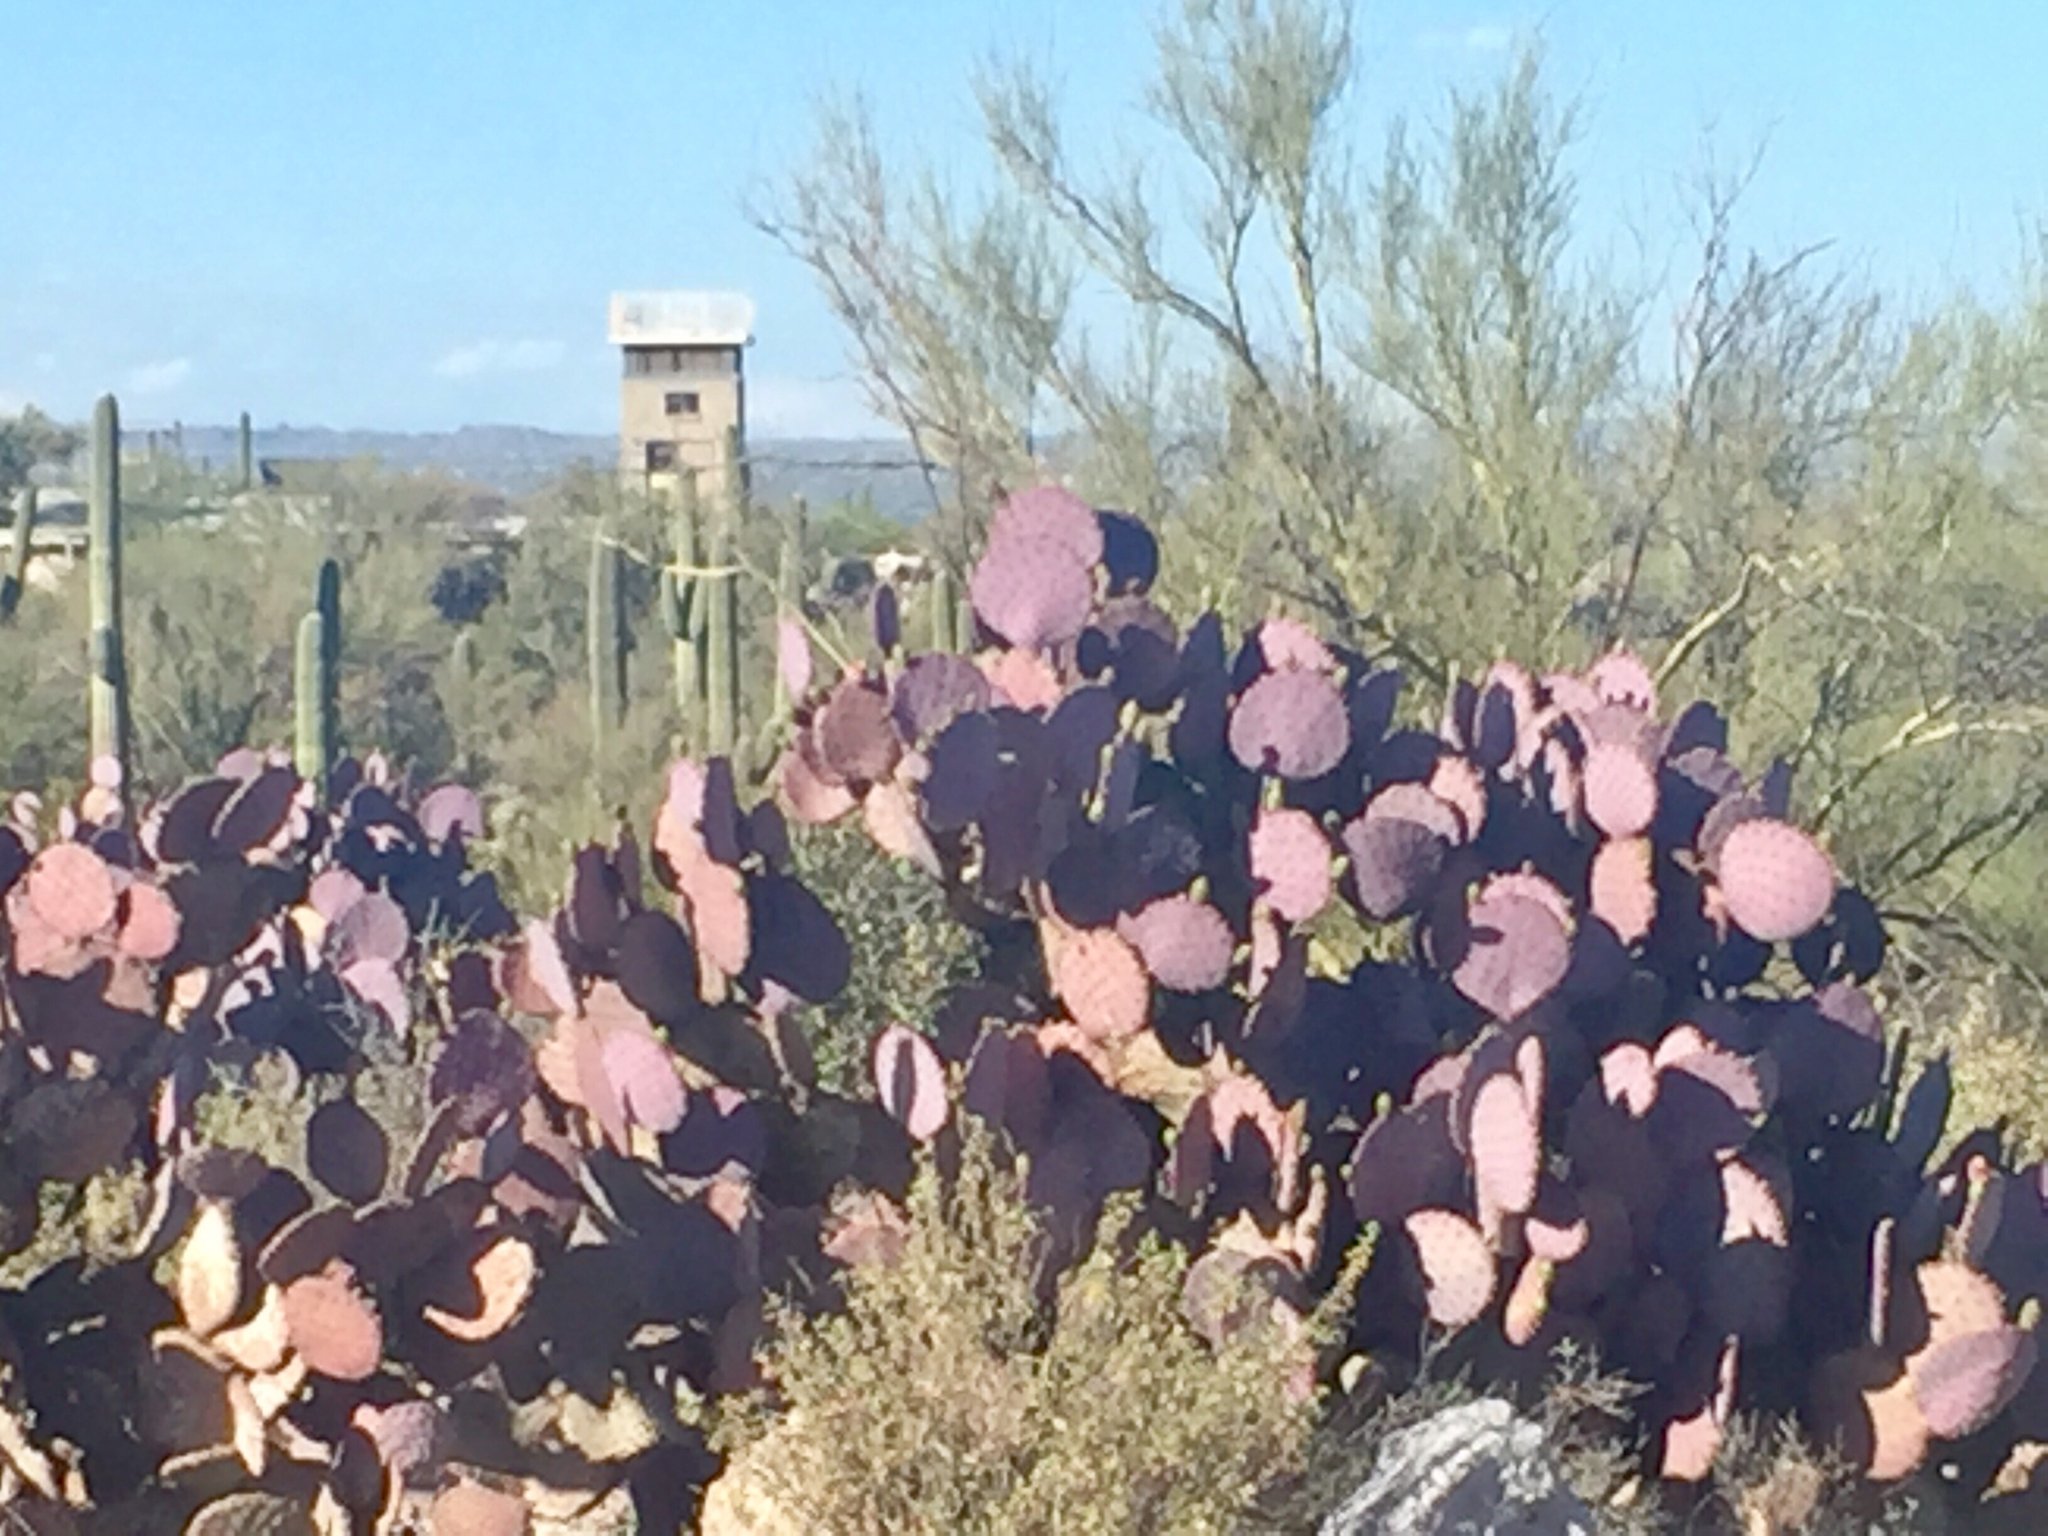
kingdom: Plantae
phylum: Tracheophyta
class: Magnoliopsida
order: Caryophyllales
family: Cactaceae
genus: Opuntia
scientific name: Opuntia gosseliniana
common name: Violet prickly-pear
